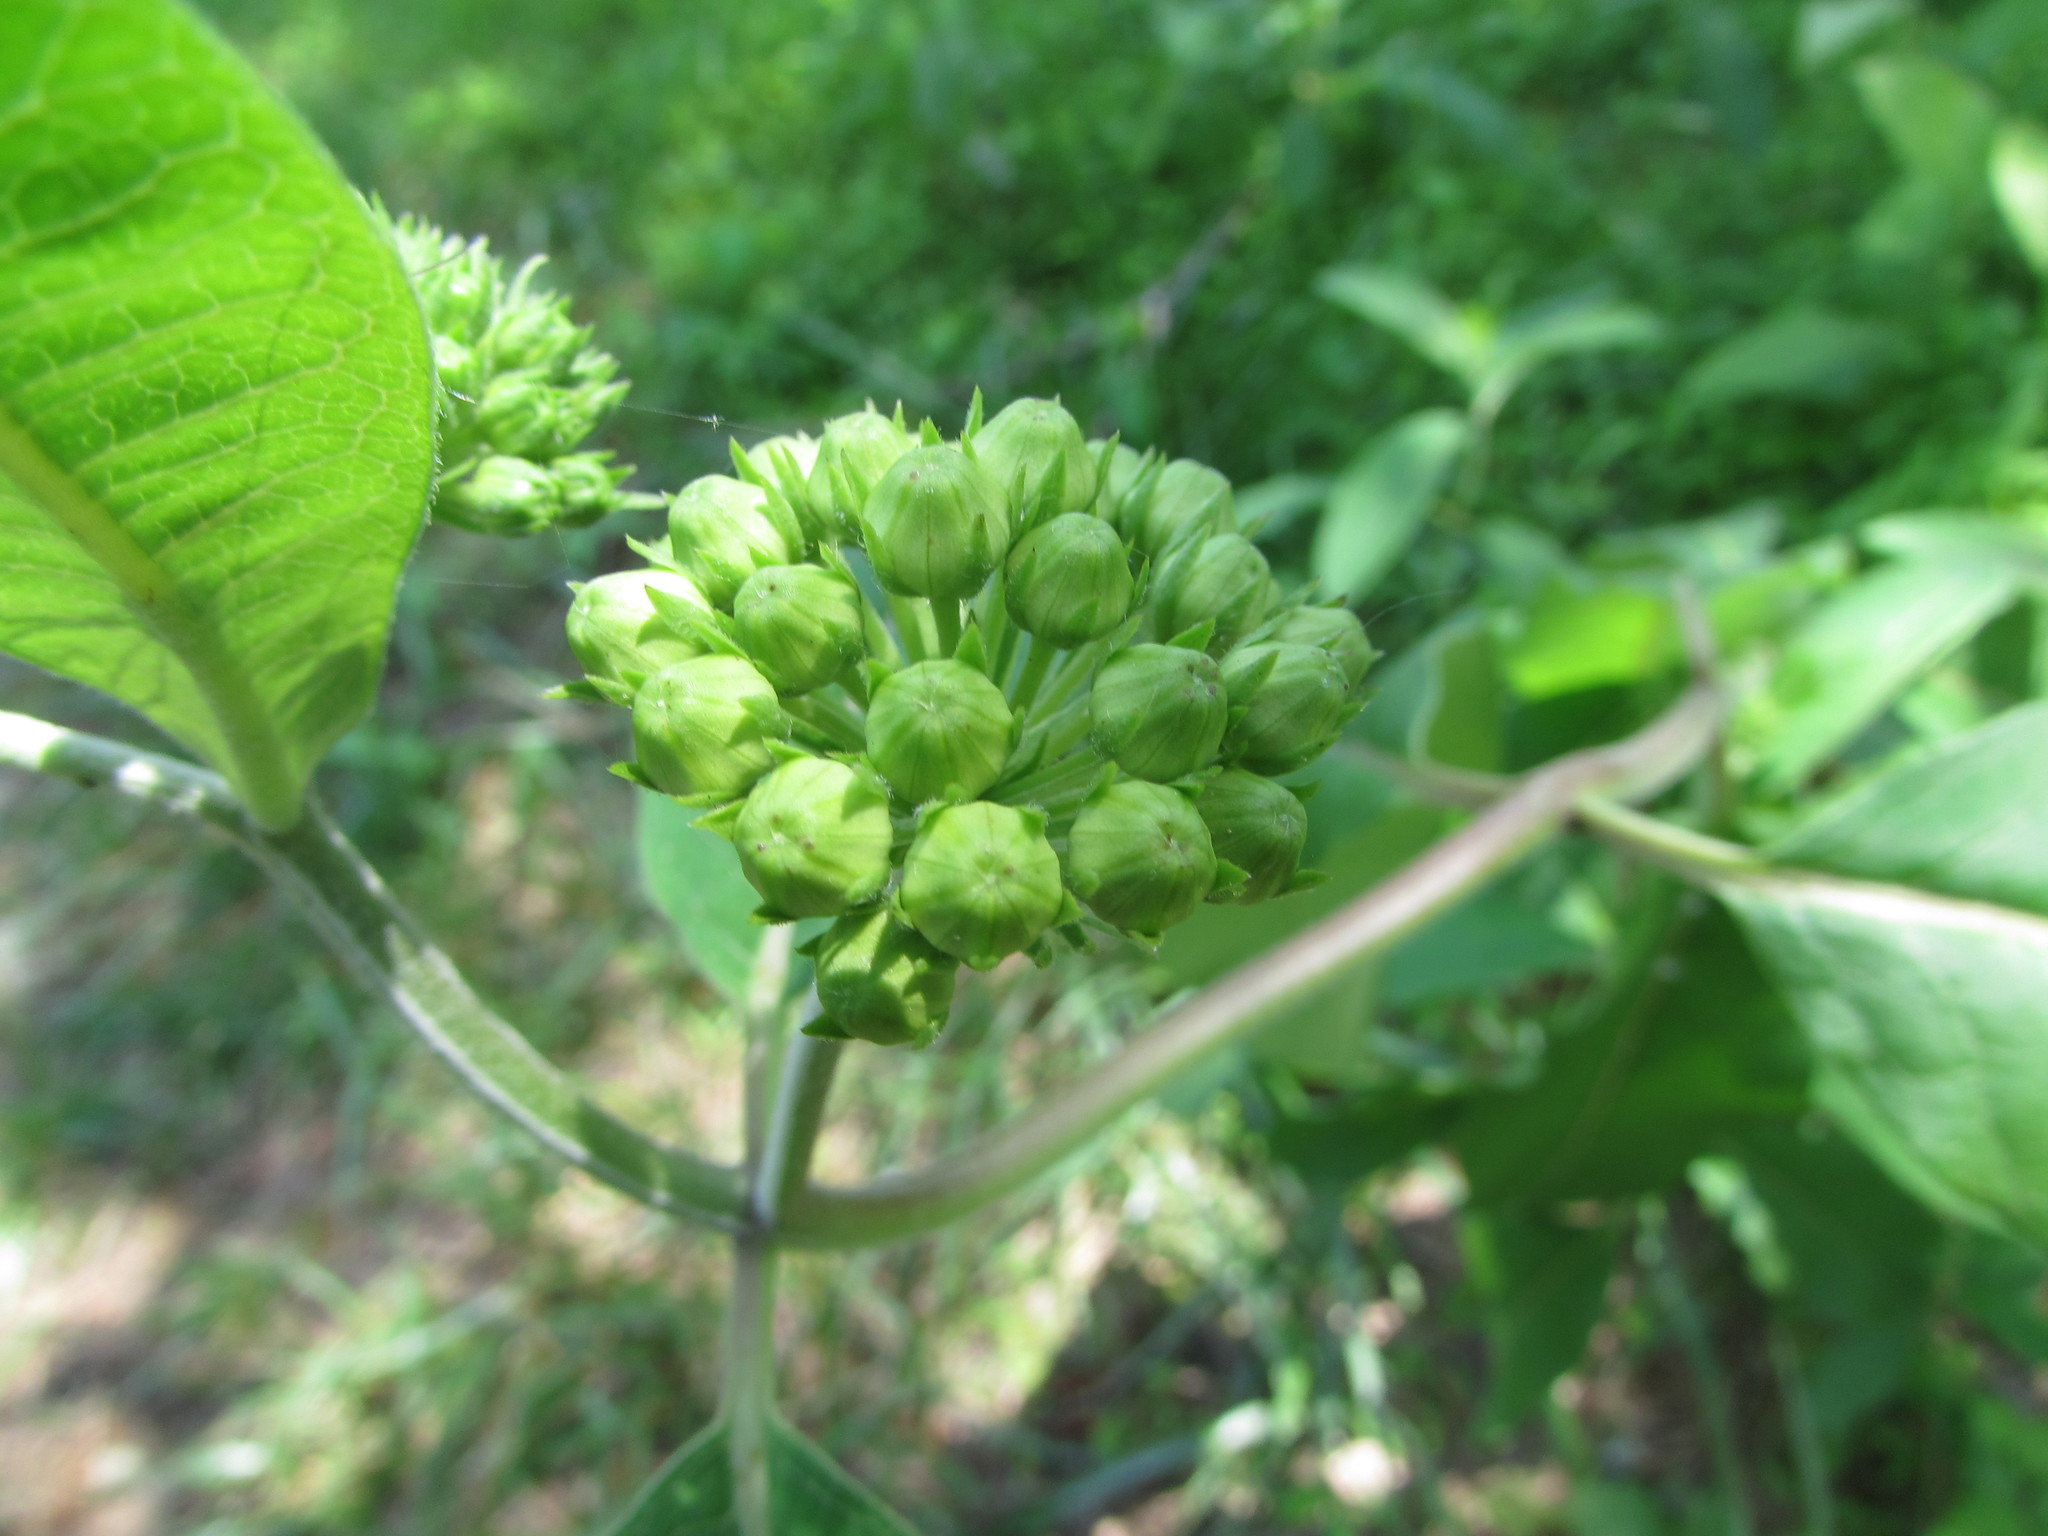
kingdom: Plantae
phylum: Tracheophyta
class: Magnoliopsida
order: Gentianales
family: Apocynaceae
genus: Asclepias
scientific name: Asclepias viridiflora
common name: Green comet milkweed
